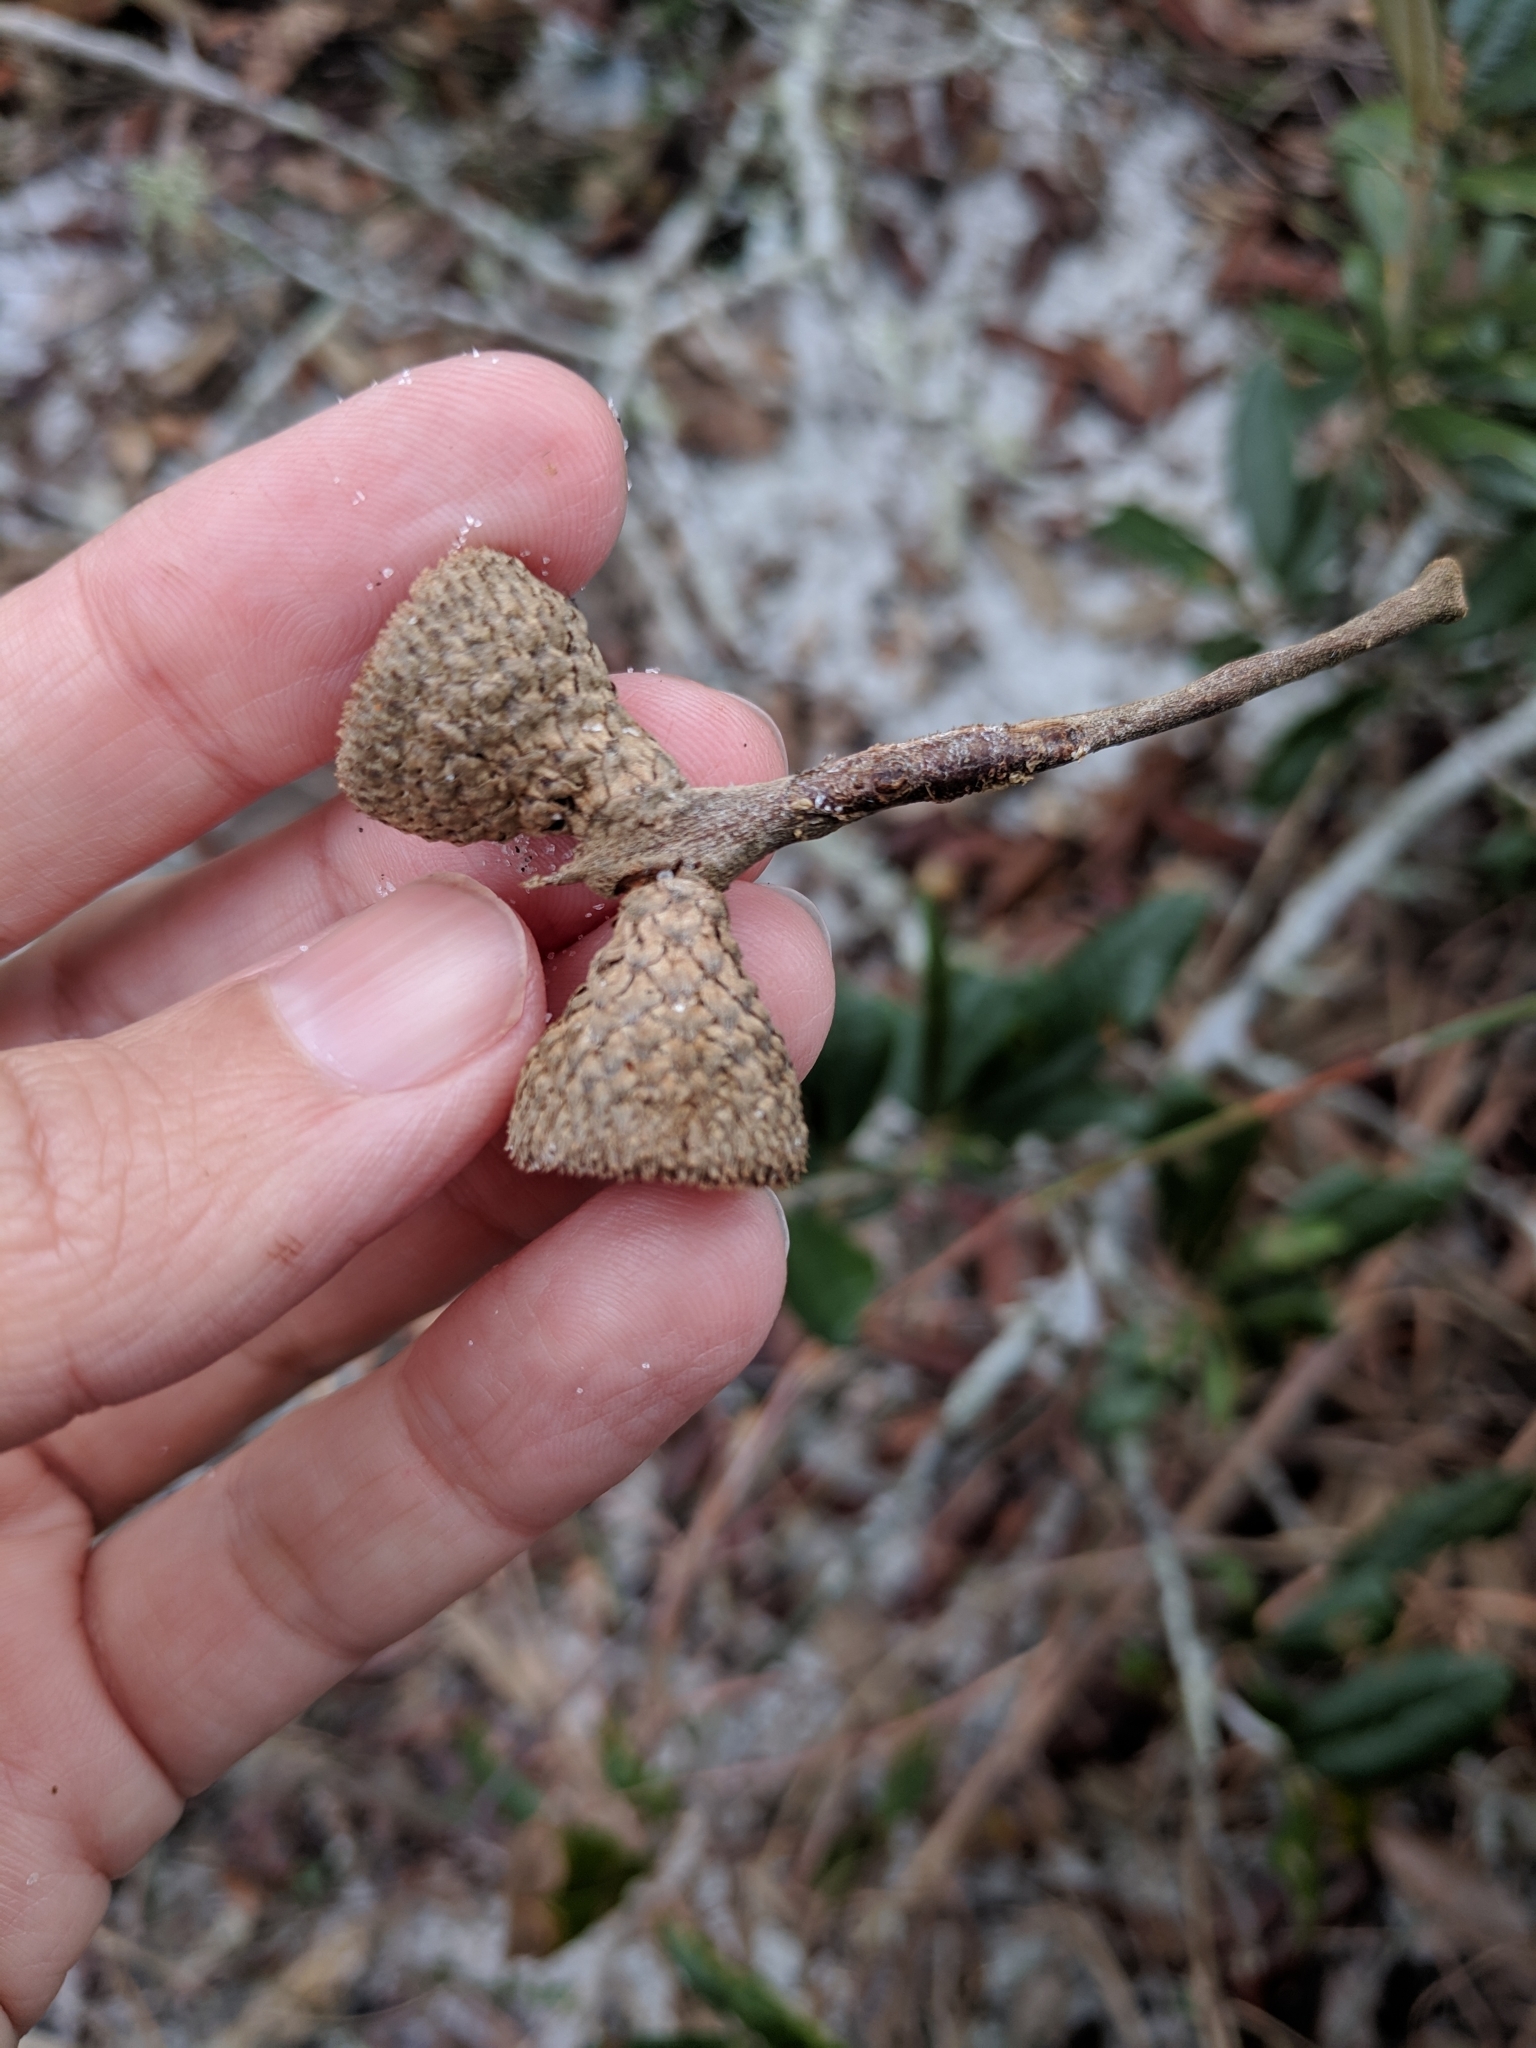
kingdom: Plantae
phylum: Tracheophyta
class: Magnoliopsida
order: Fagales
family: Fagaceae
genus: Quercus
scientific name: Quercus geminata
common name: Sand live oak
